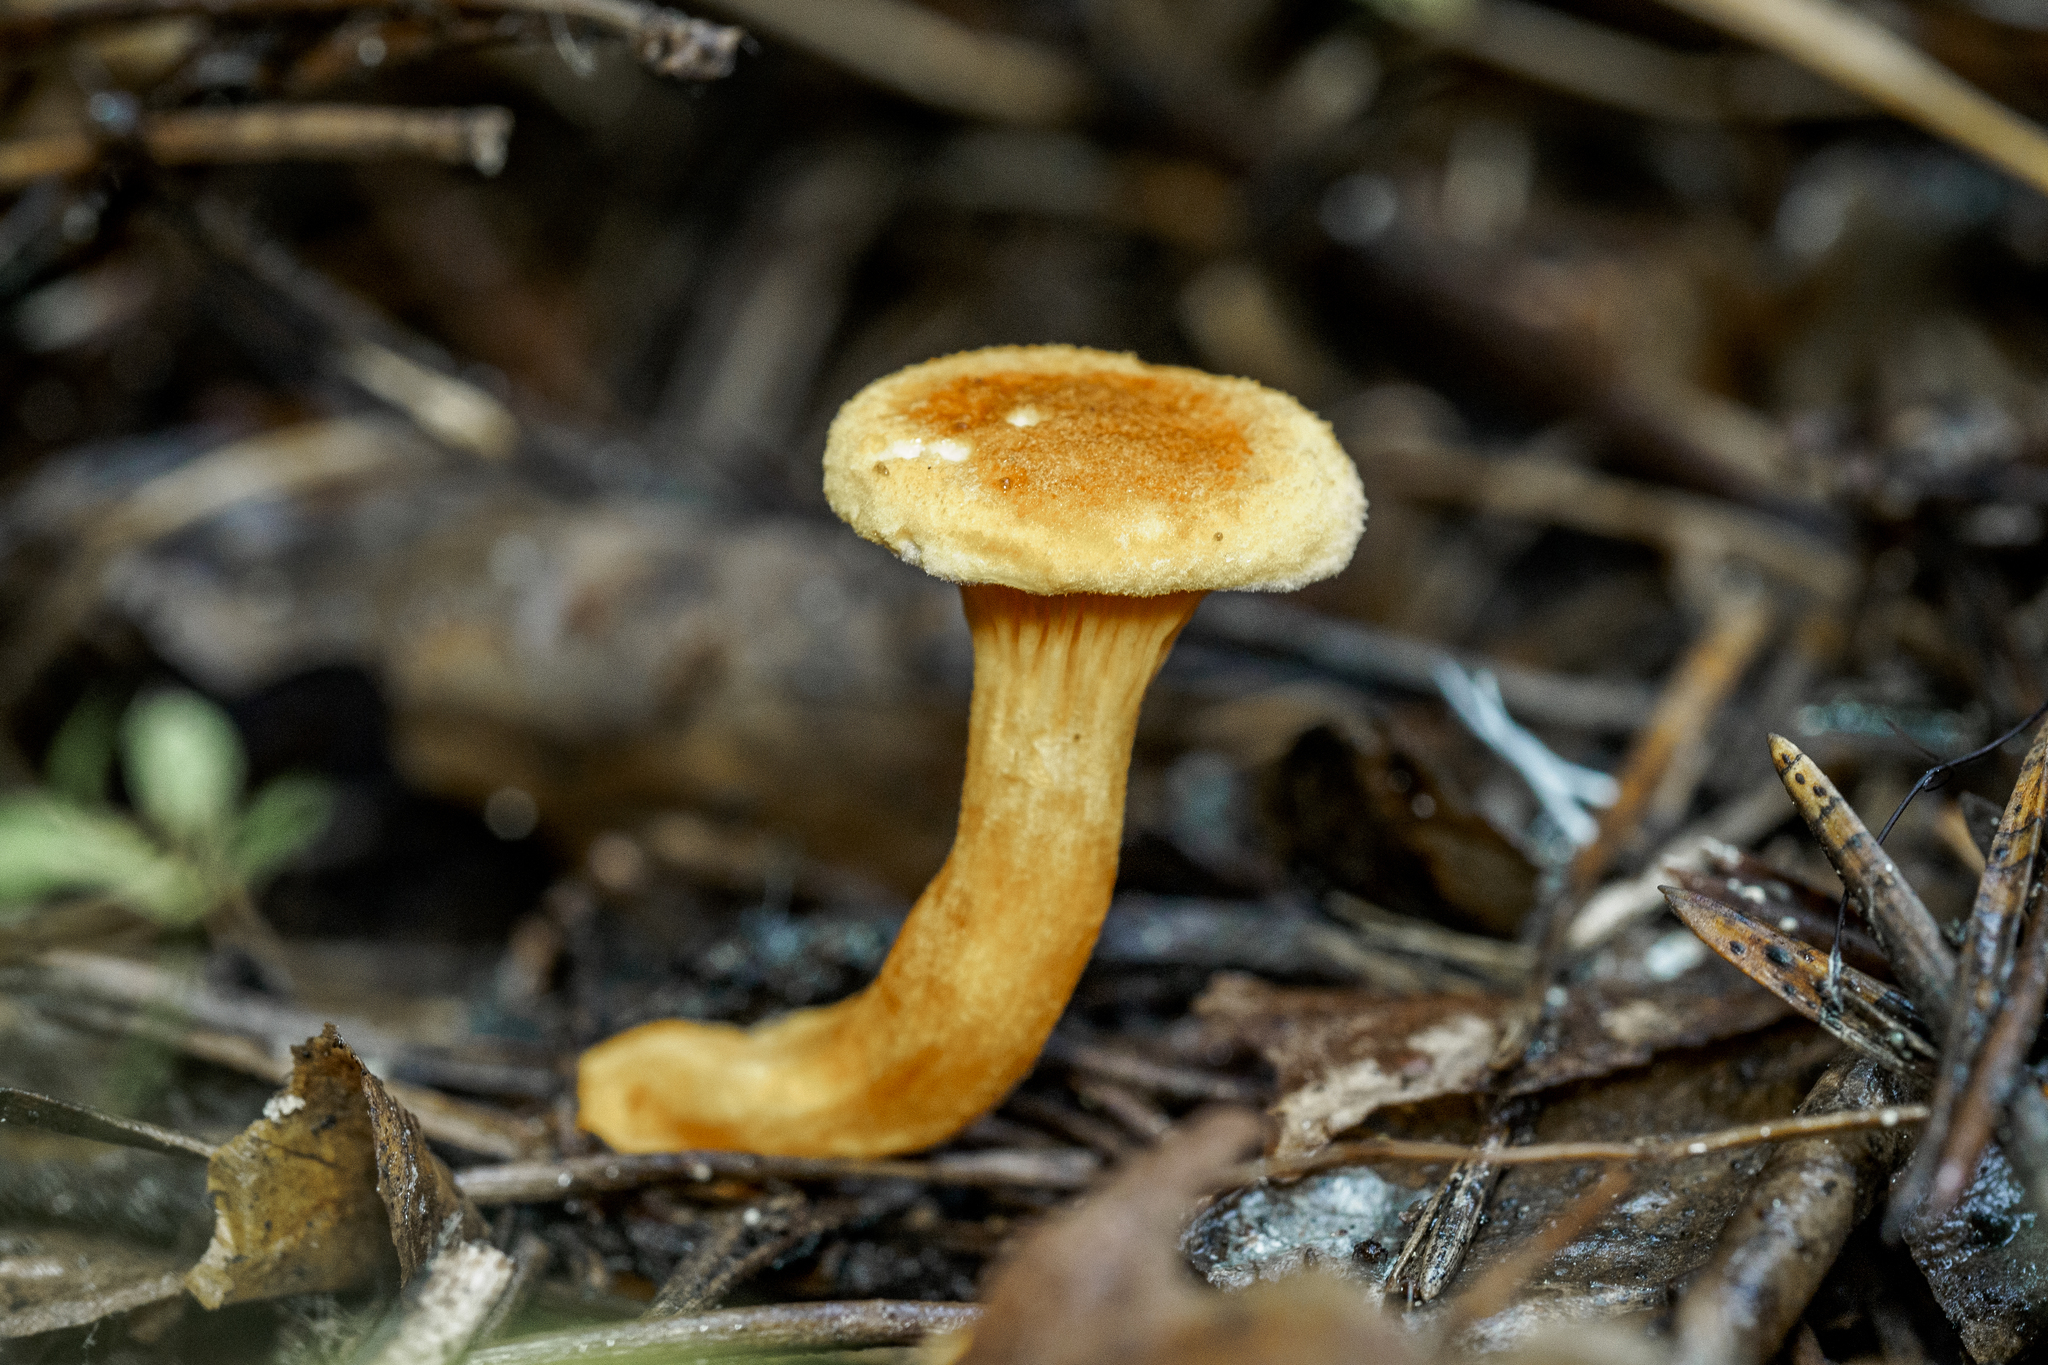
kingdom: Fungi
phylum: Basidiomycota
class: Agaricomycetes
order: Boletales
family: Hygrophoropsidaceae
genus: Hygrophoropsis
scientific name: Hygrophoropsis aurantiaca
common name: False chanterelle
